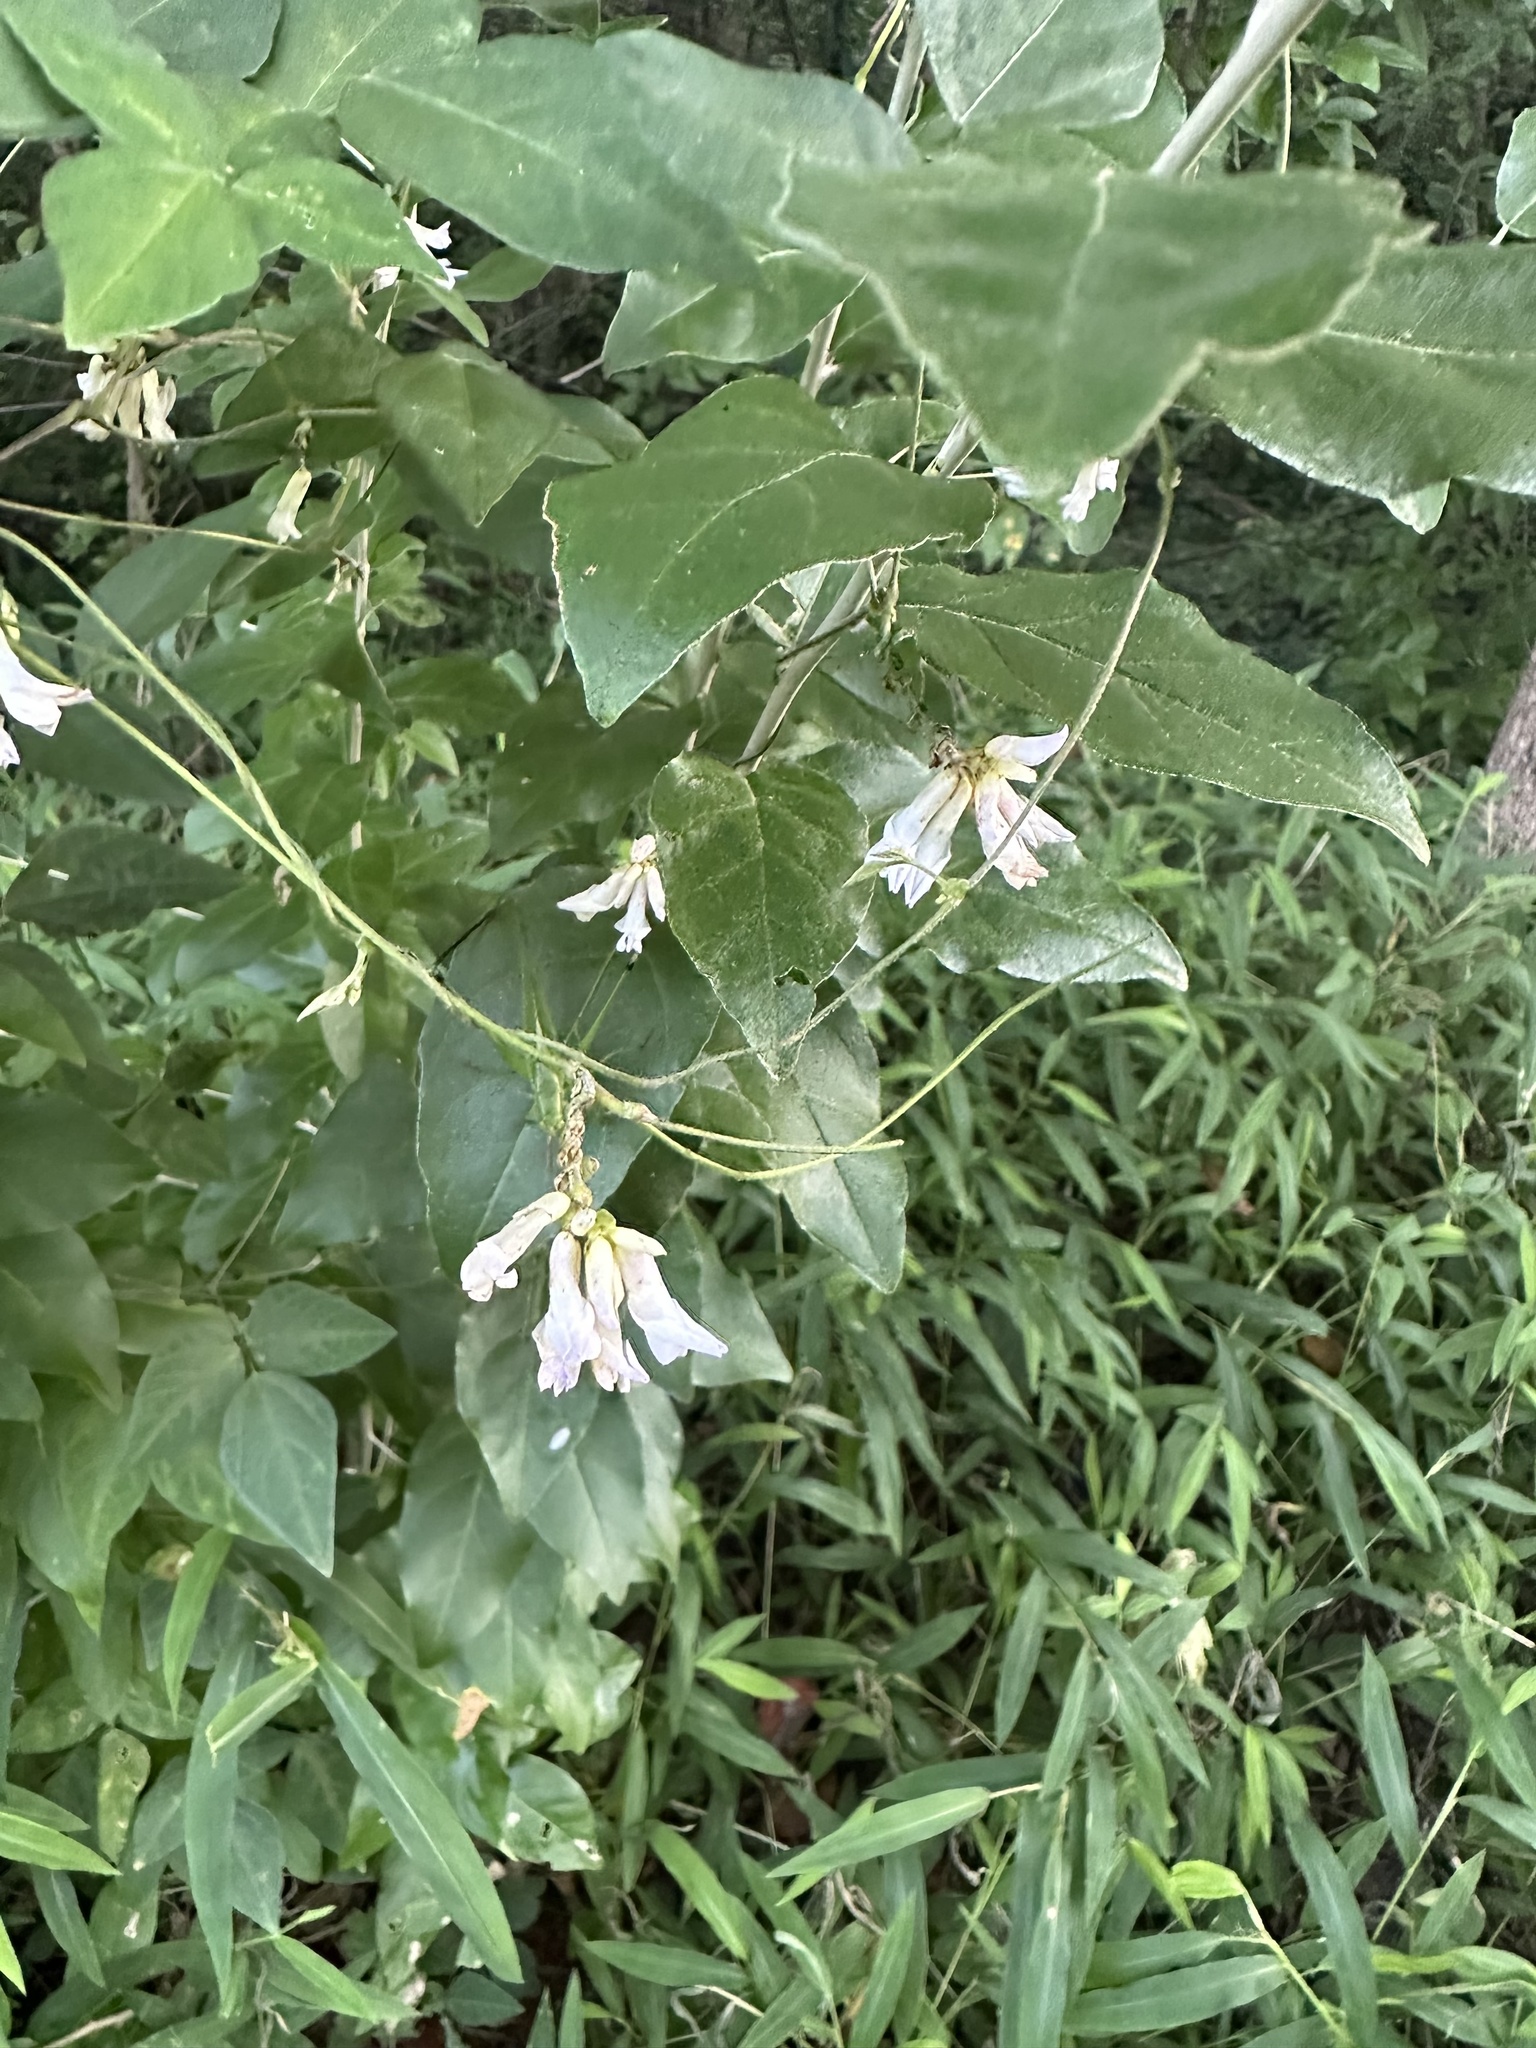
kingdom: Plantae
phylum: Tracheophyta
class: Magnoliopsida
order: Fabales
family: Fabaceae
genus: Amphicarpaea
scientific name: Amphicarpaea bracteata
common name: American hog peanut
